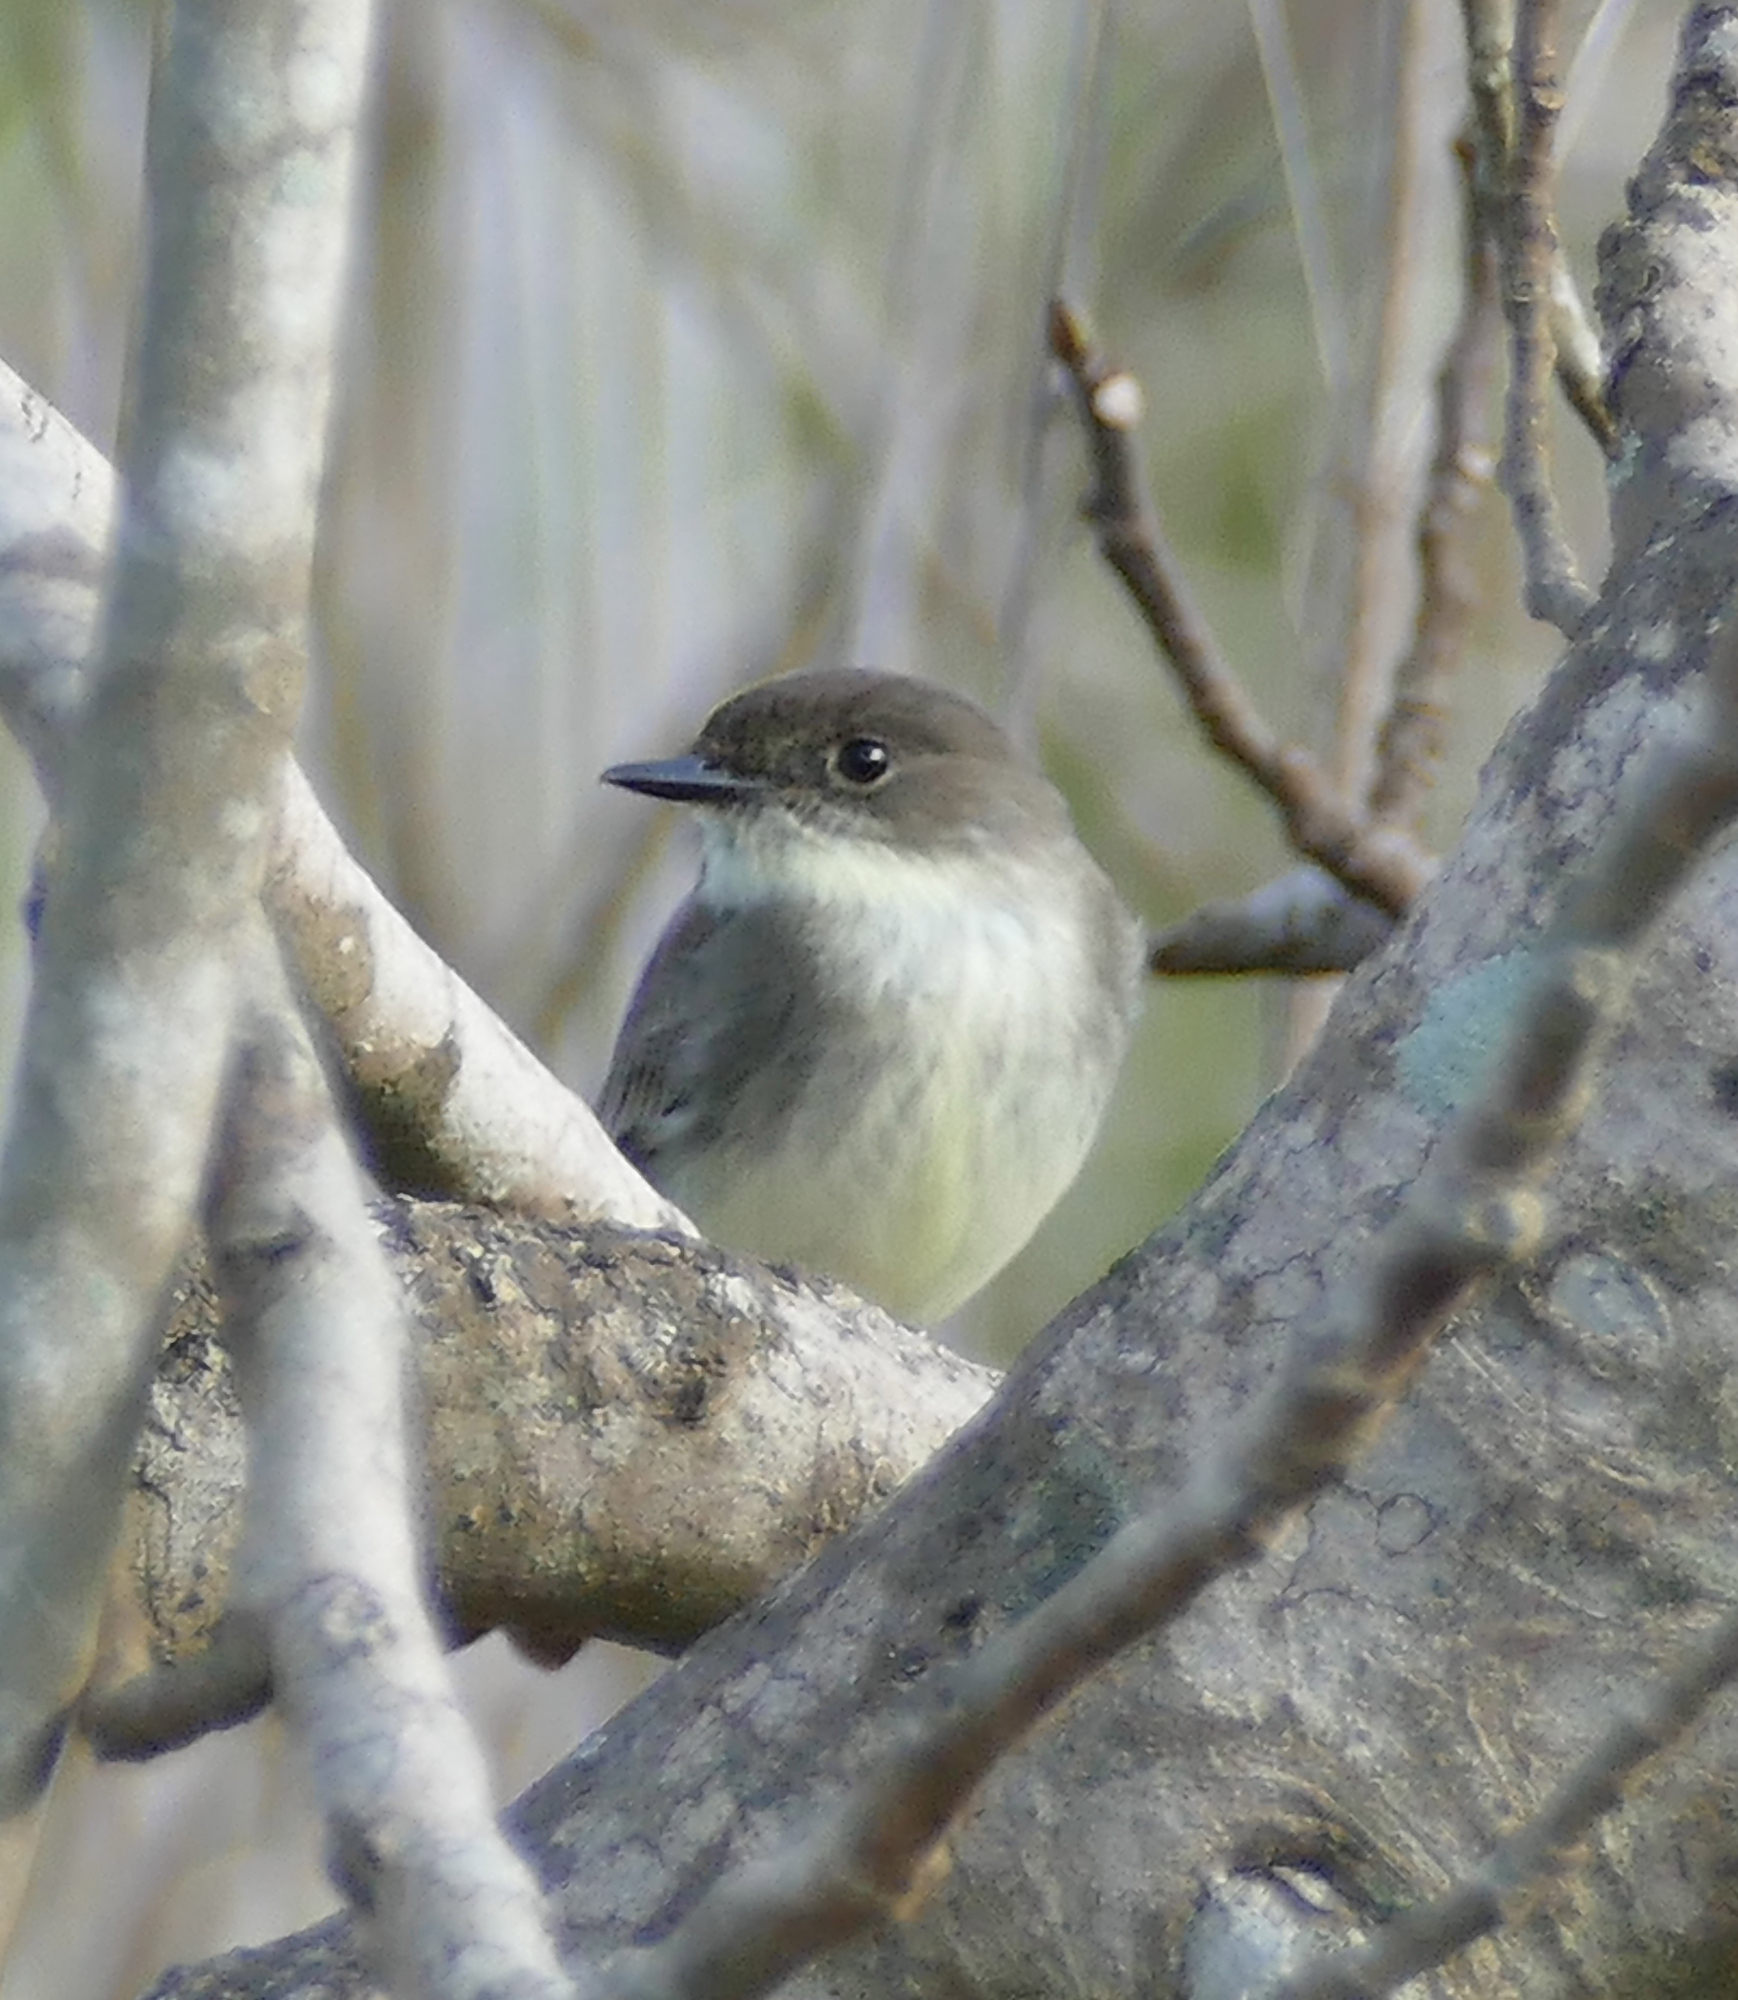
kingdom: Animalia
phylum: Chordata
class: Aves
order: Passeriformes
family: Tyrannidae
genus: Sayornis
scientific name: Sayornis phoebe
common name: Eastern phoebe
